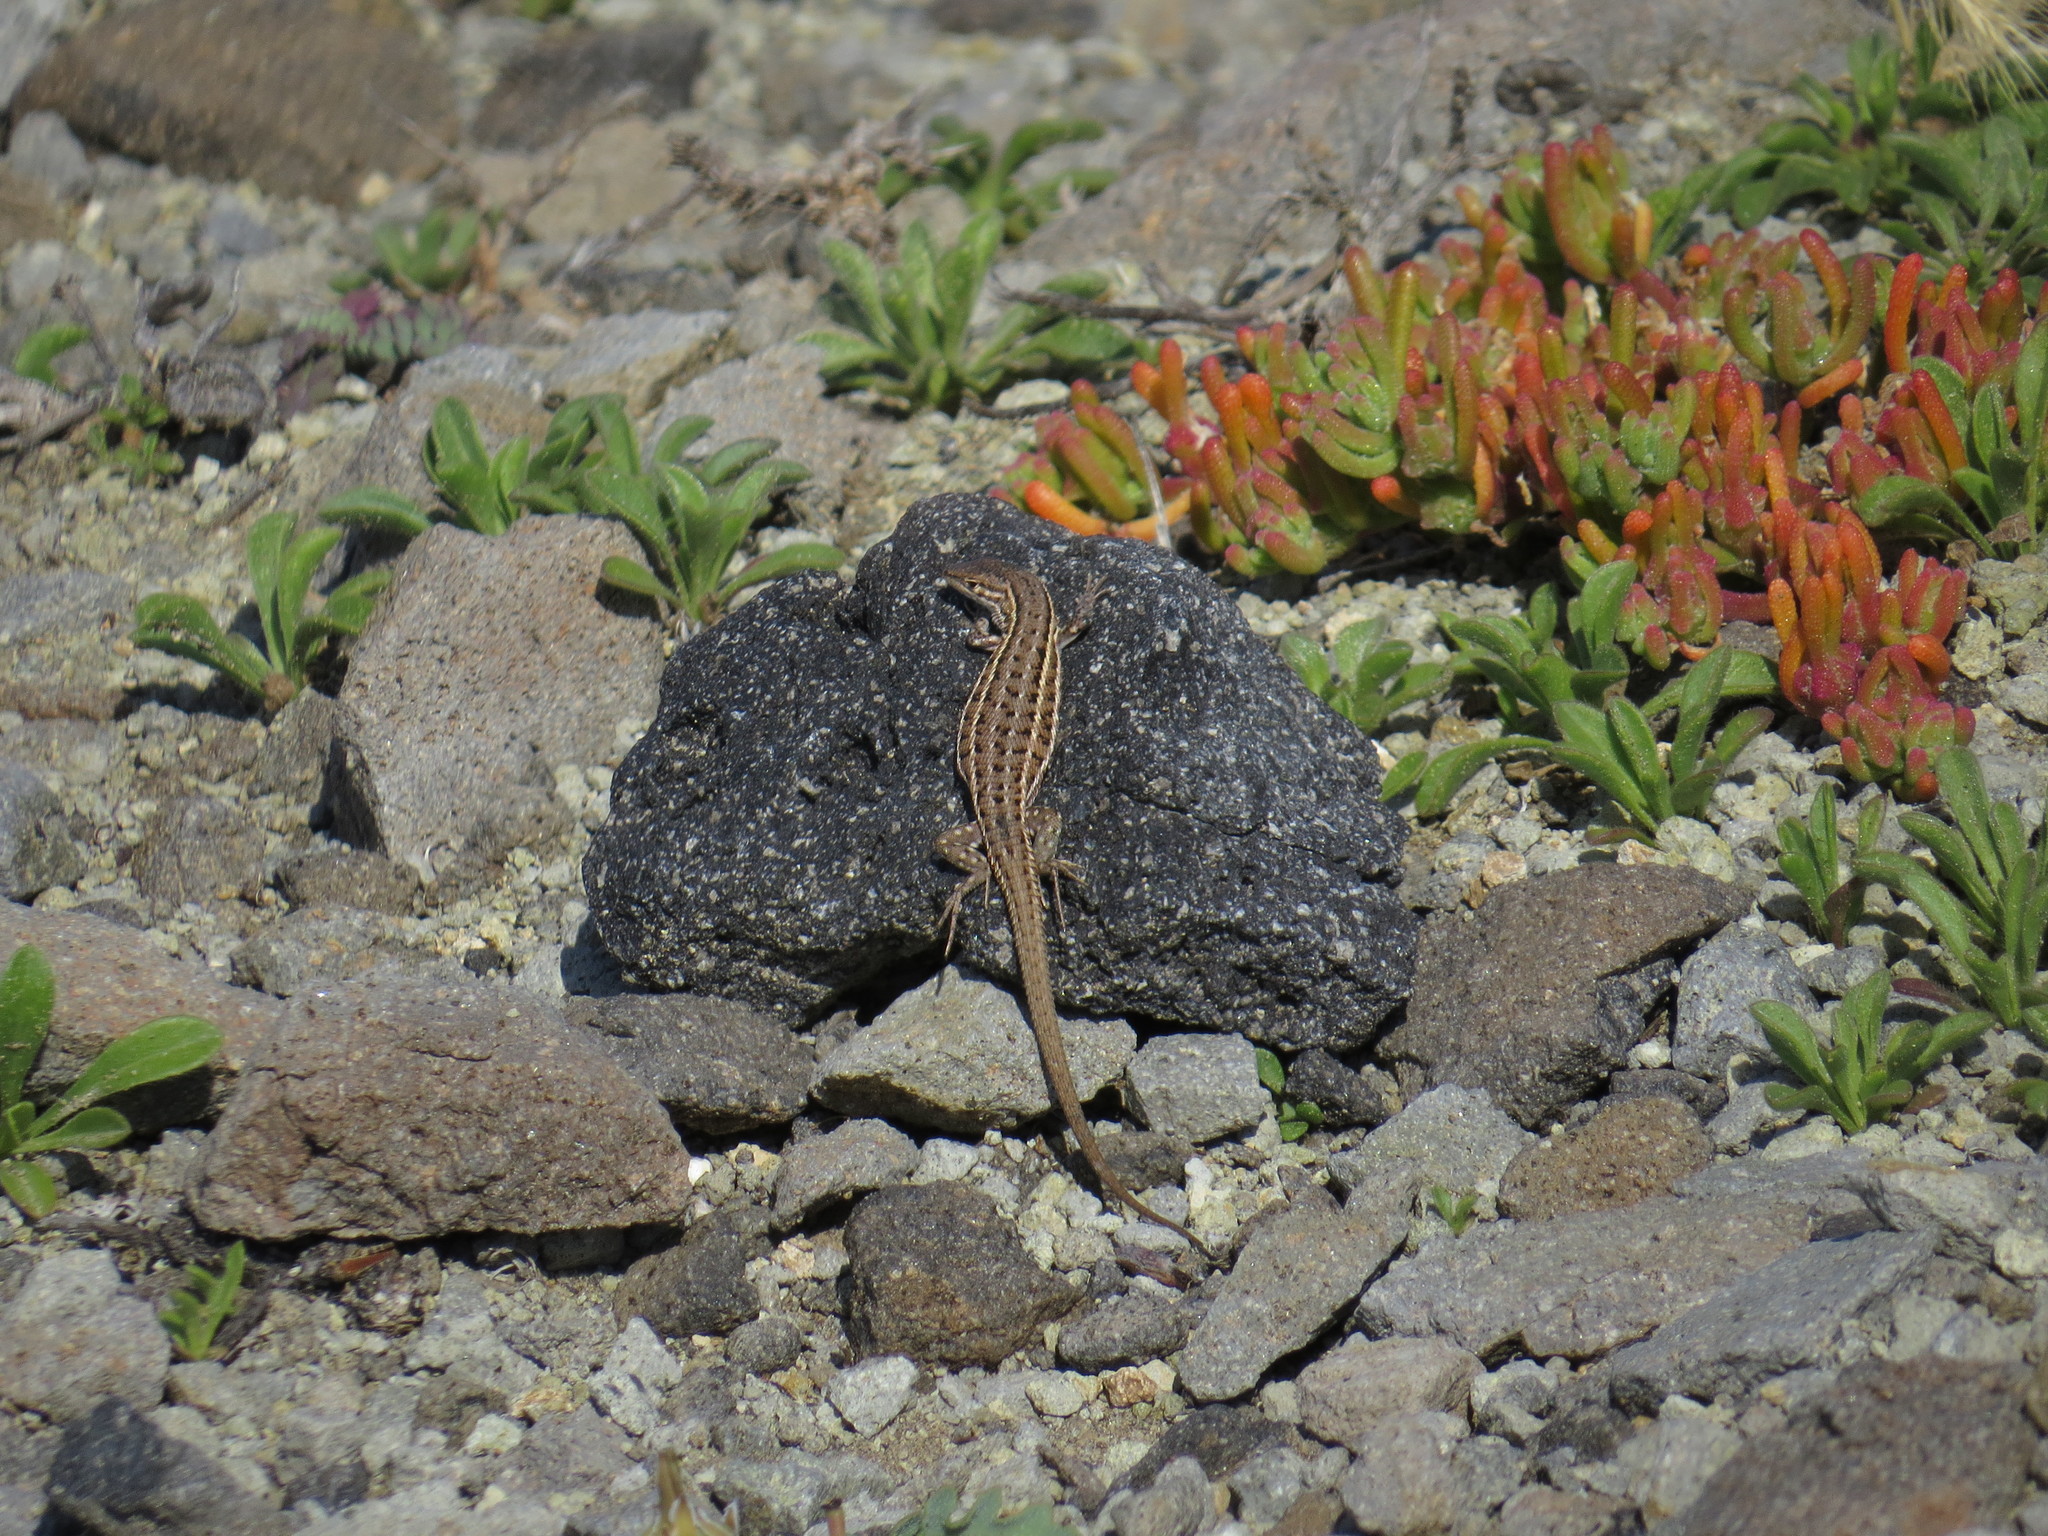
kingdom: Animalia
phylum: Chordata
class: Squamata
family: Lacertidae
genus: Psammodromus
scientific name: Psammodromus edwarsianus
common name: East iberian psammodromus
